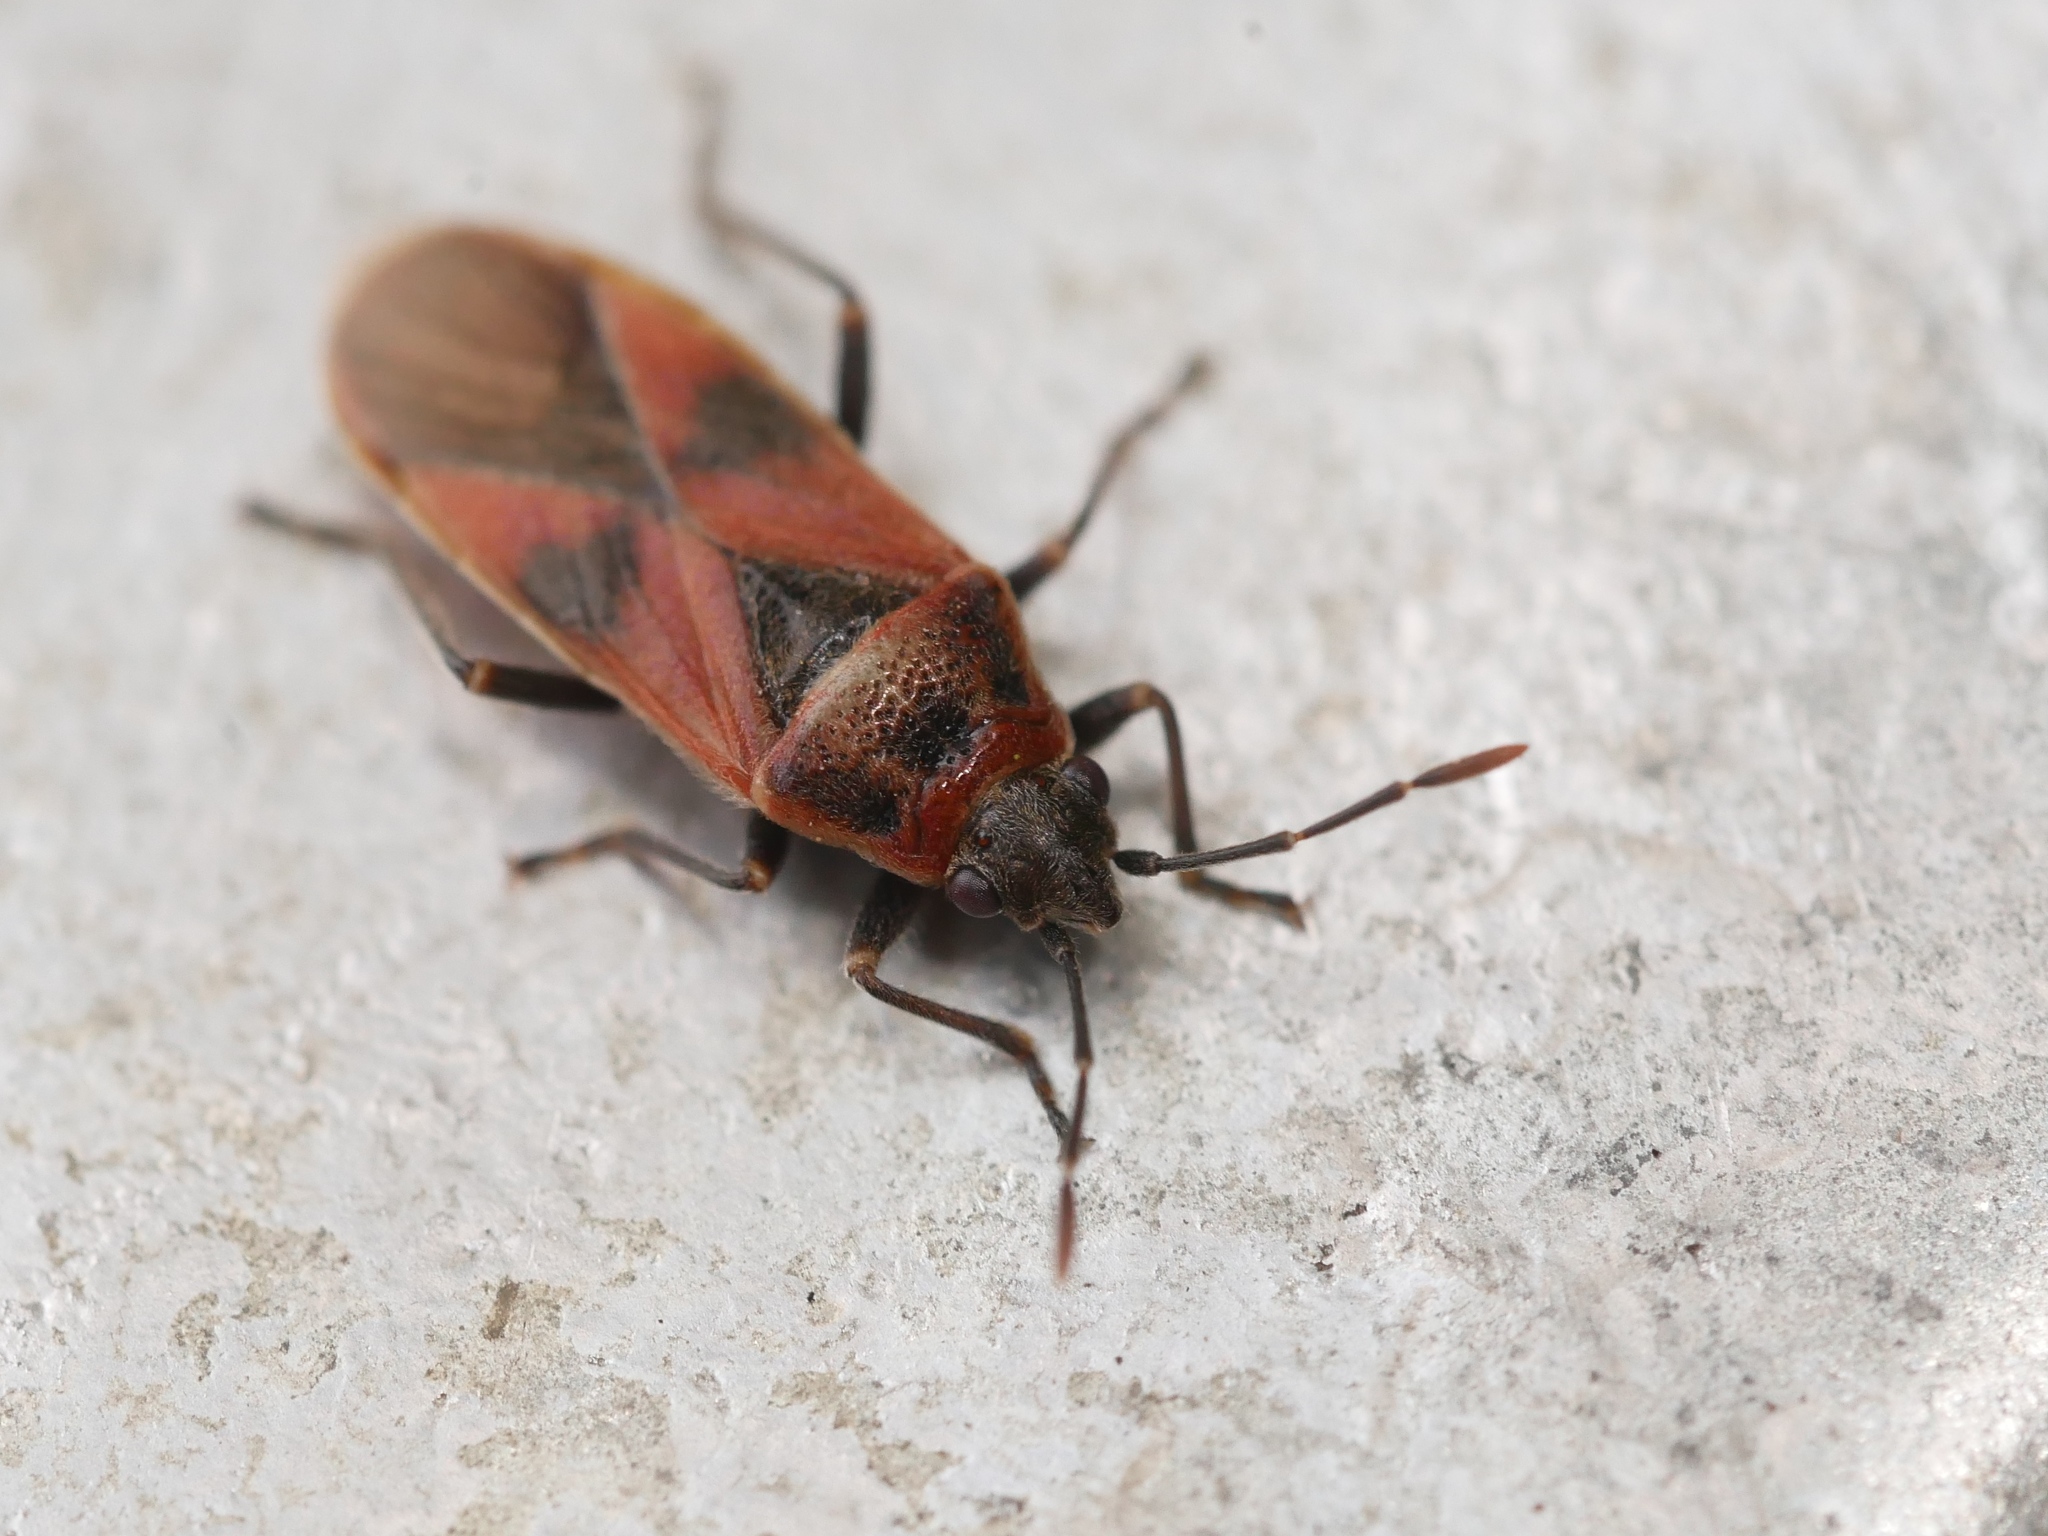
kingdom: Animalia
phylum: Arthropoda
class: Insecta
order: Hemiptera
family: Lygaeidae
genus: Arocatus
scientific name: Arocatus roeselii
